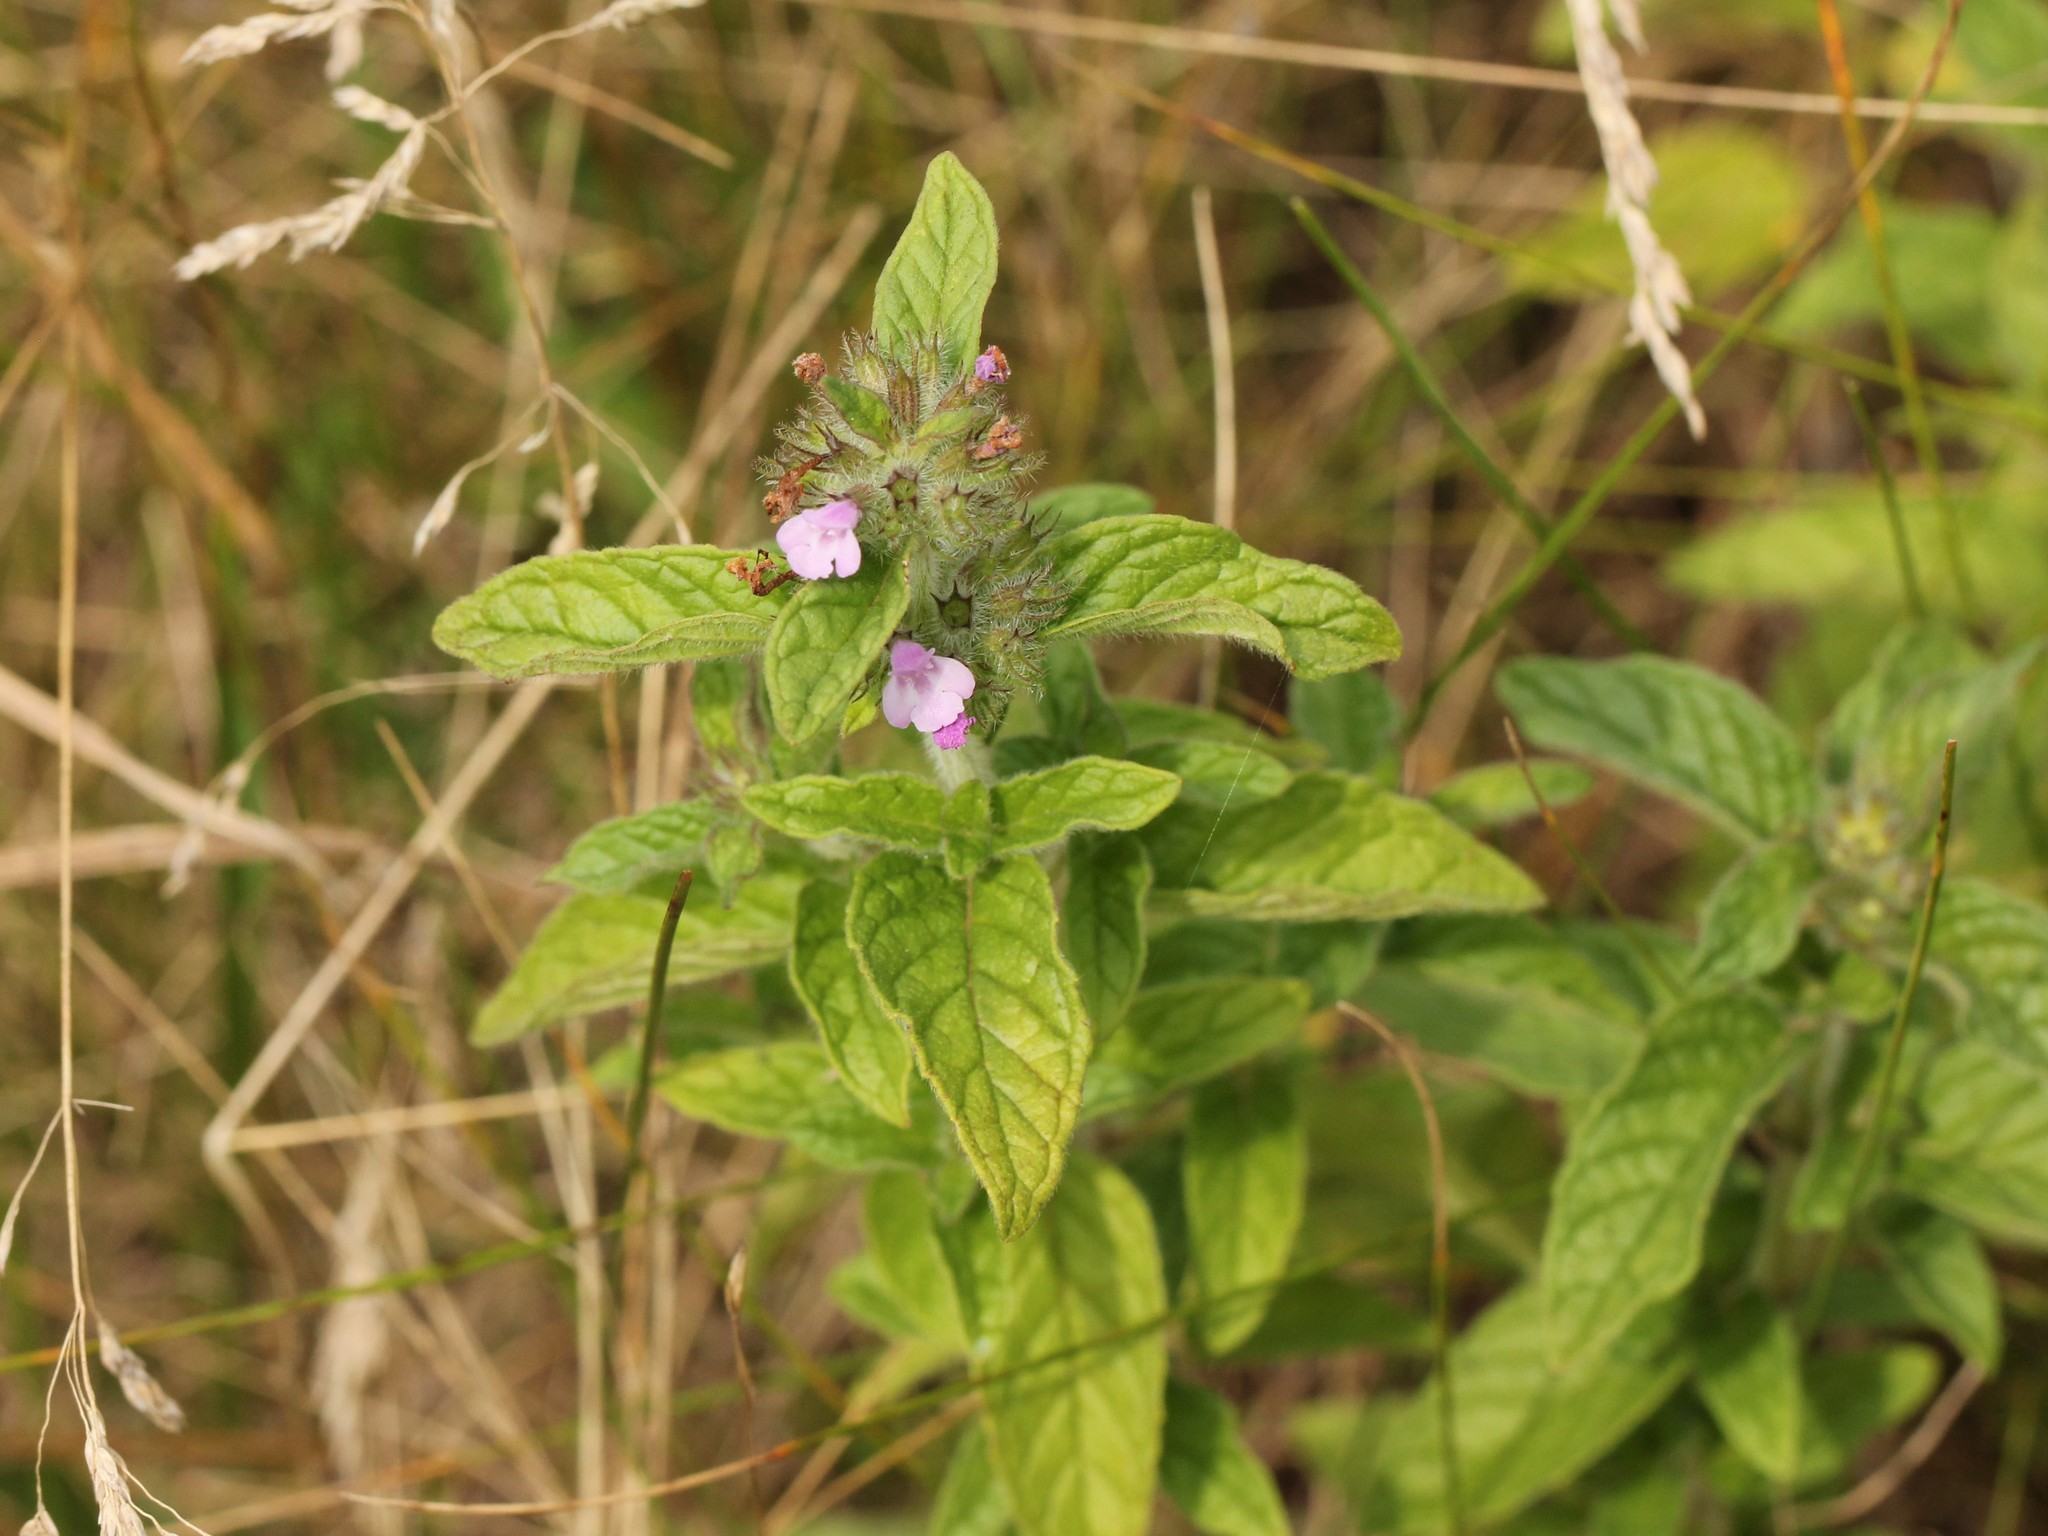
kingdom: Plantae
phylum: Tracheophyta
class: Magnoliopsida
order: Lamiales
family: Lamiaceae
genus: Clinopodium
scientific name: Clinopodium vulgare
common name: Wild basil
